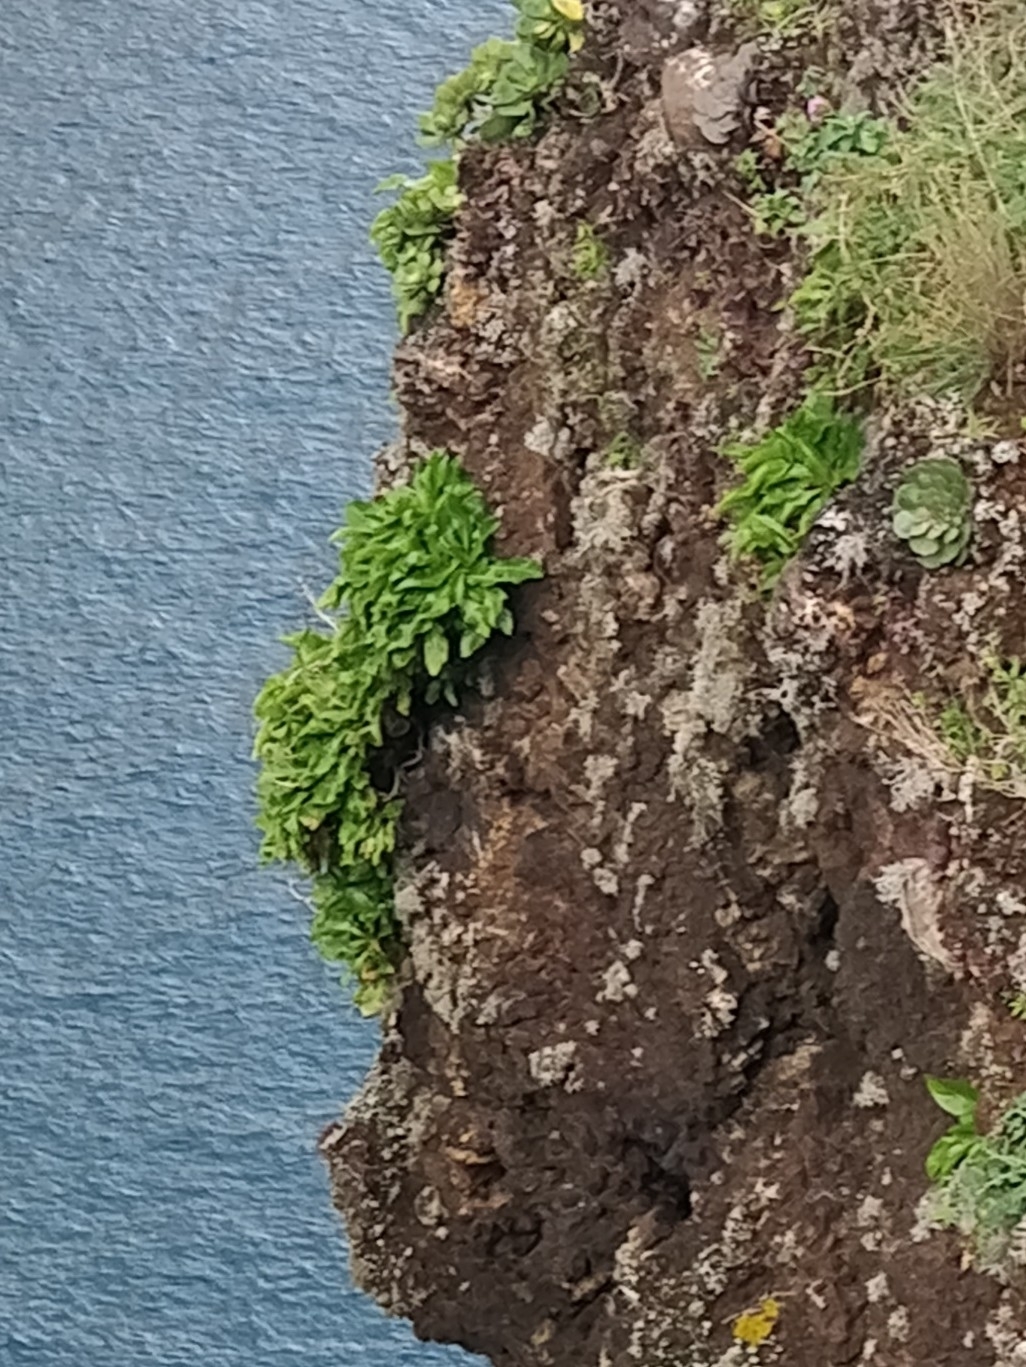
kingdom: Plantae
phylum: Tracheophyta
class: Magnoliopsida
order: Asterales
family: Campanulaceae
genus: Musschia
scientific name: Musschia aurea
